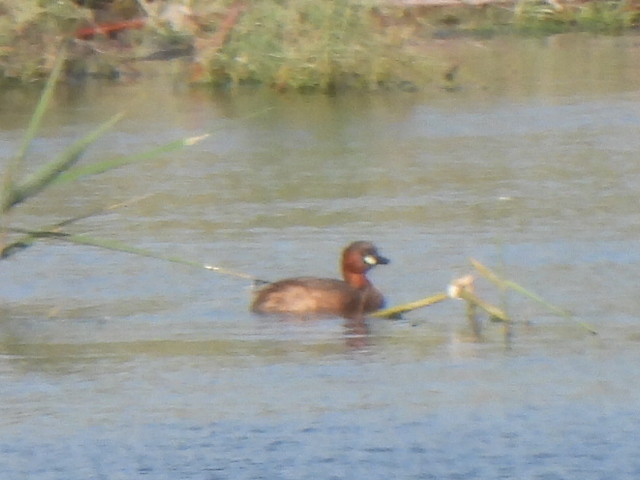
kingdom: Animalia
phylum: Chordata
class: Aves
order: Podicipediformes
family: Podicipedidae
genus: Tachybaptus
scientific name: Tachybaptus ruficollis
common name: Little grebe
